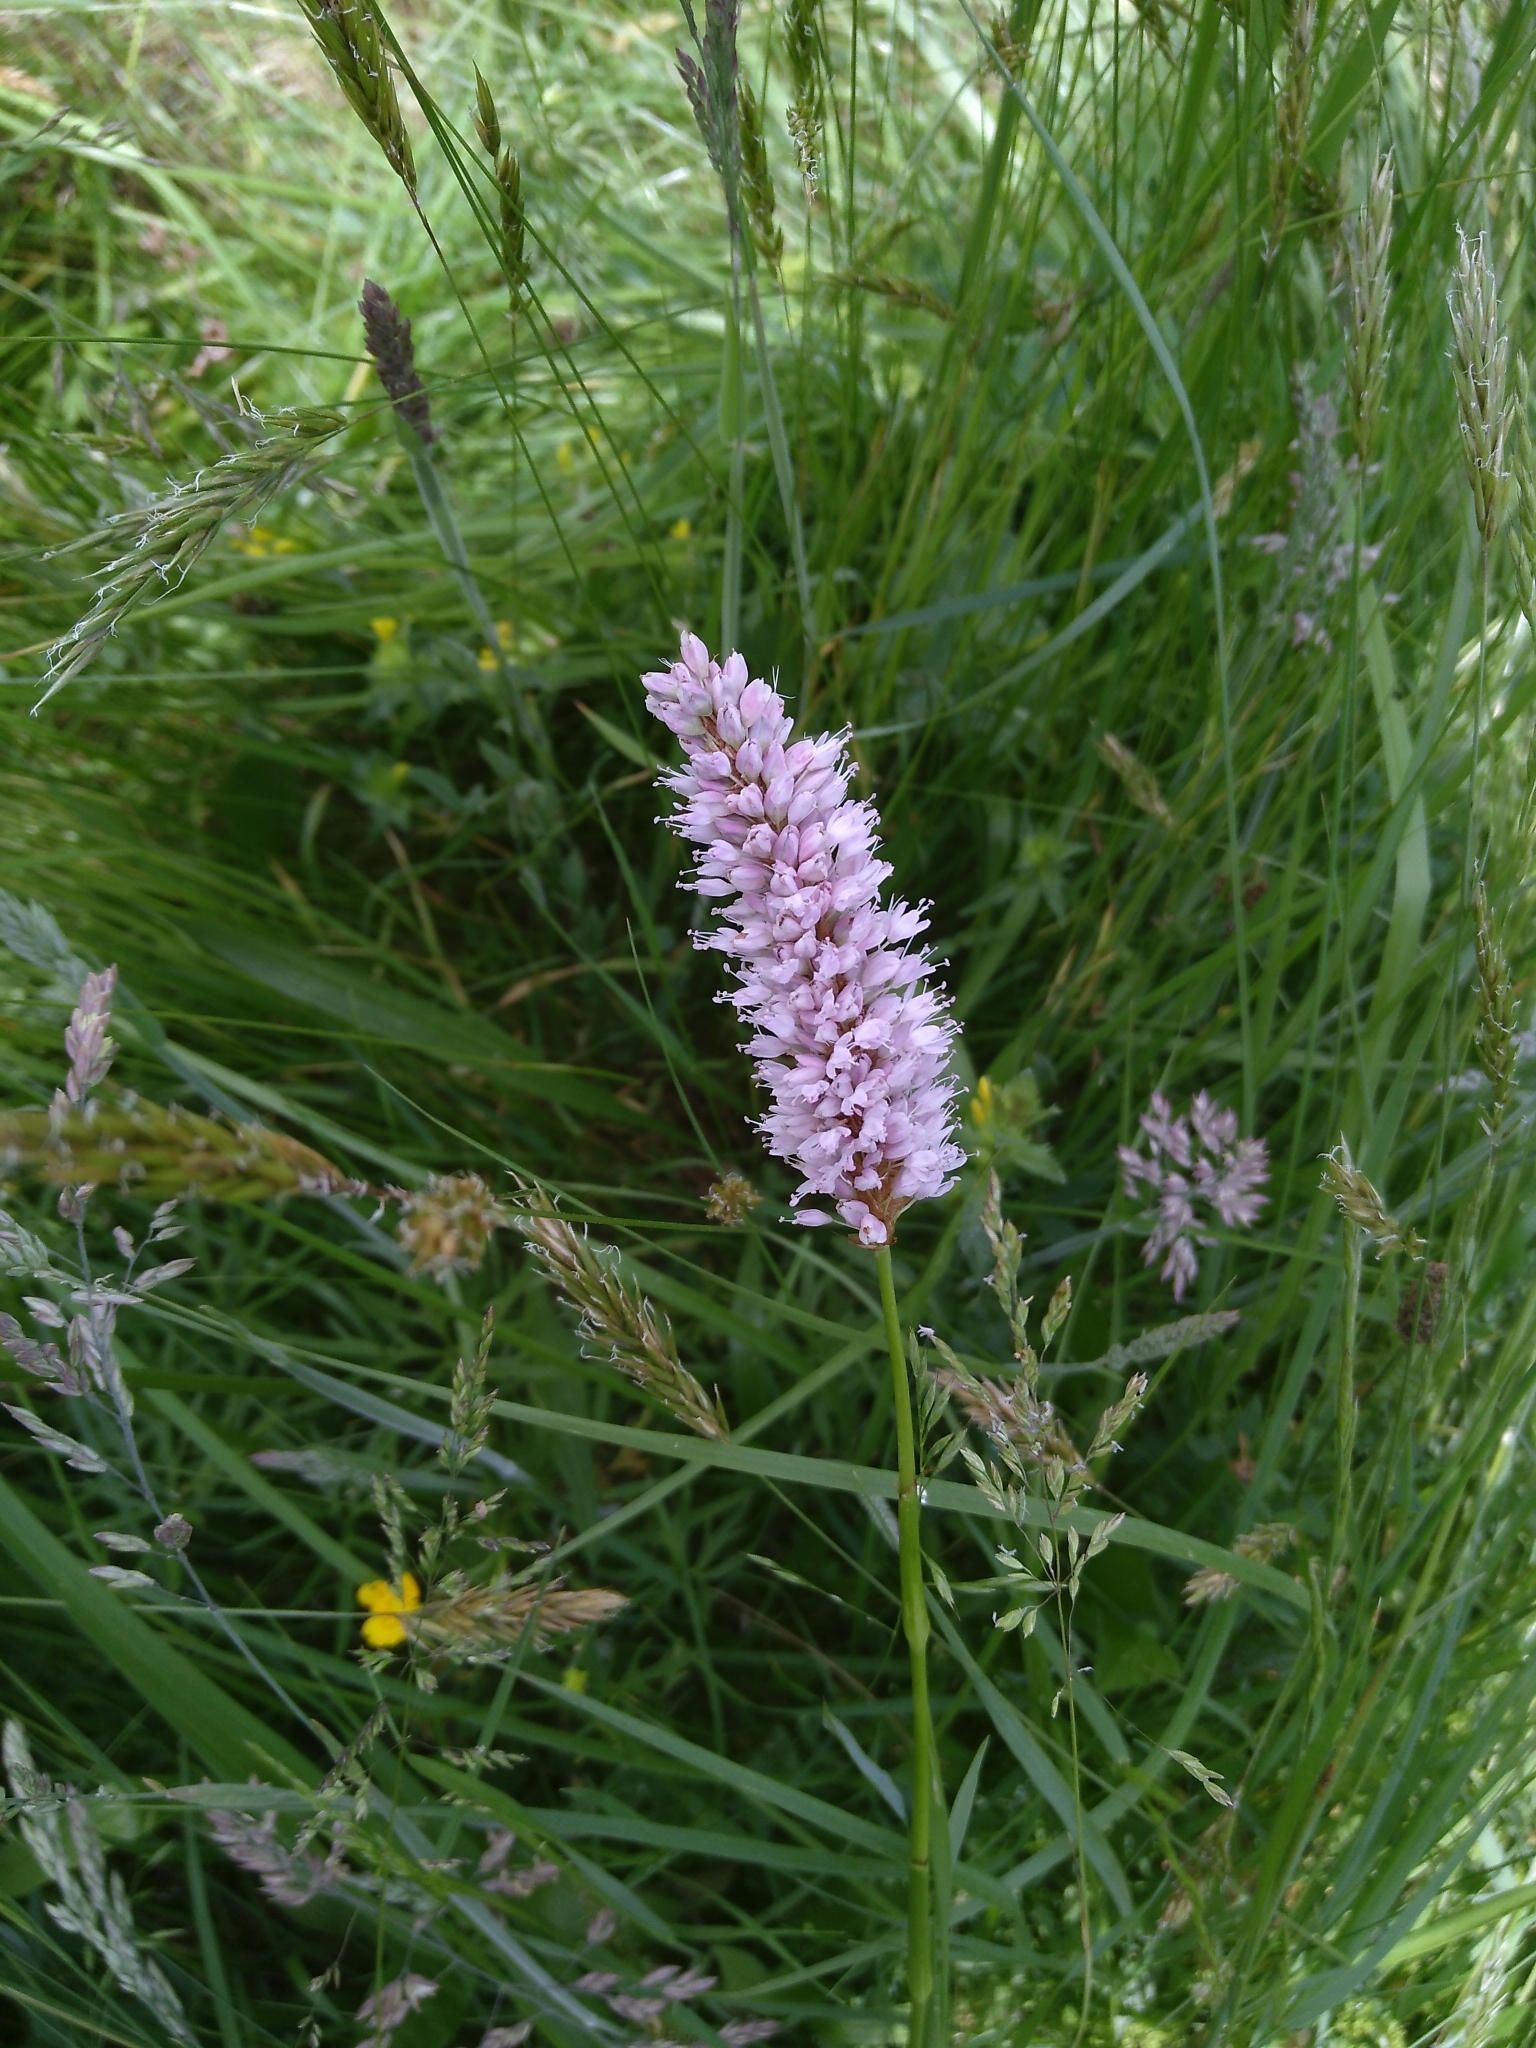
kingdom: Plantae
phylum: Tracheophyta
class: Magnoliopsida
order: Caryophyllales
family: Polygonaceae
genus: Bistorta
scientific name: Bistorta officinalis
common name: Common bistort
